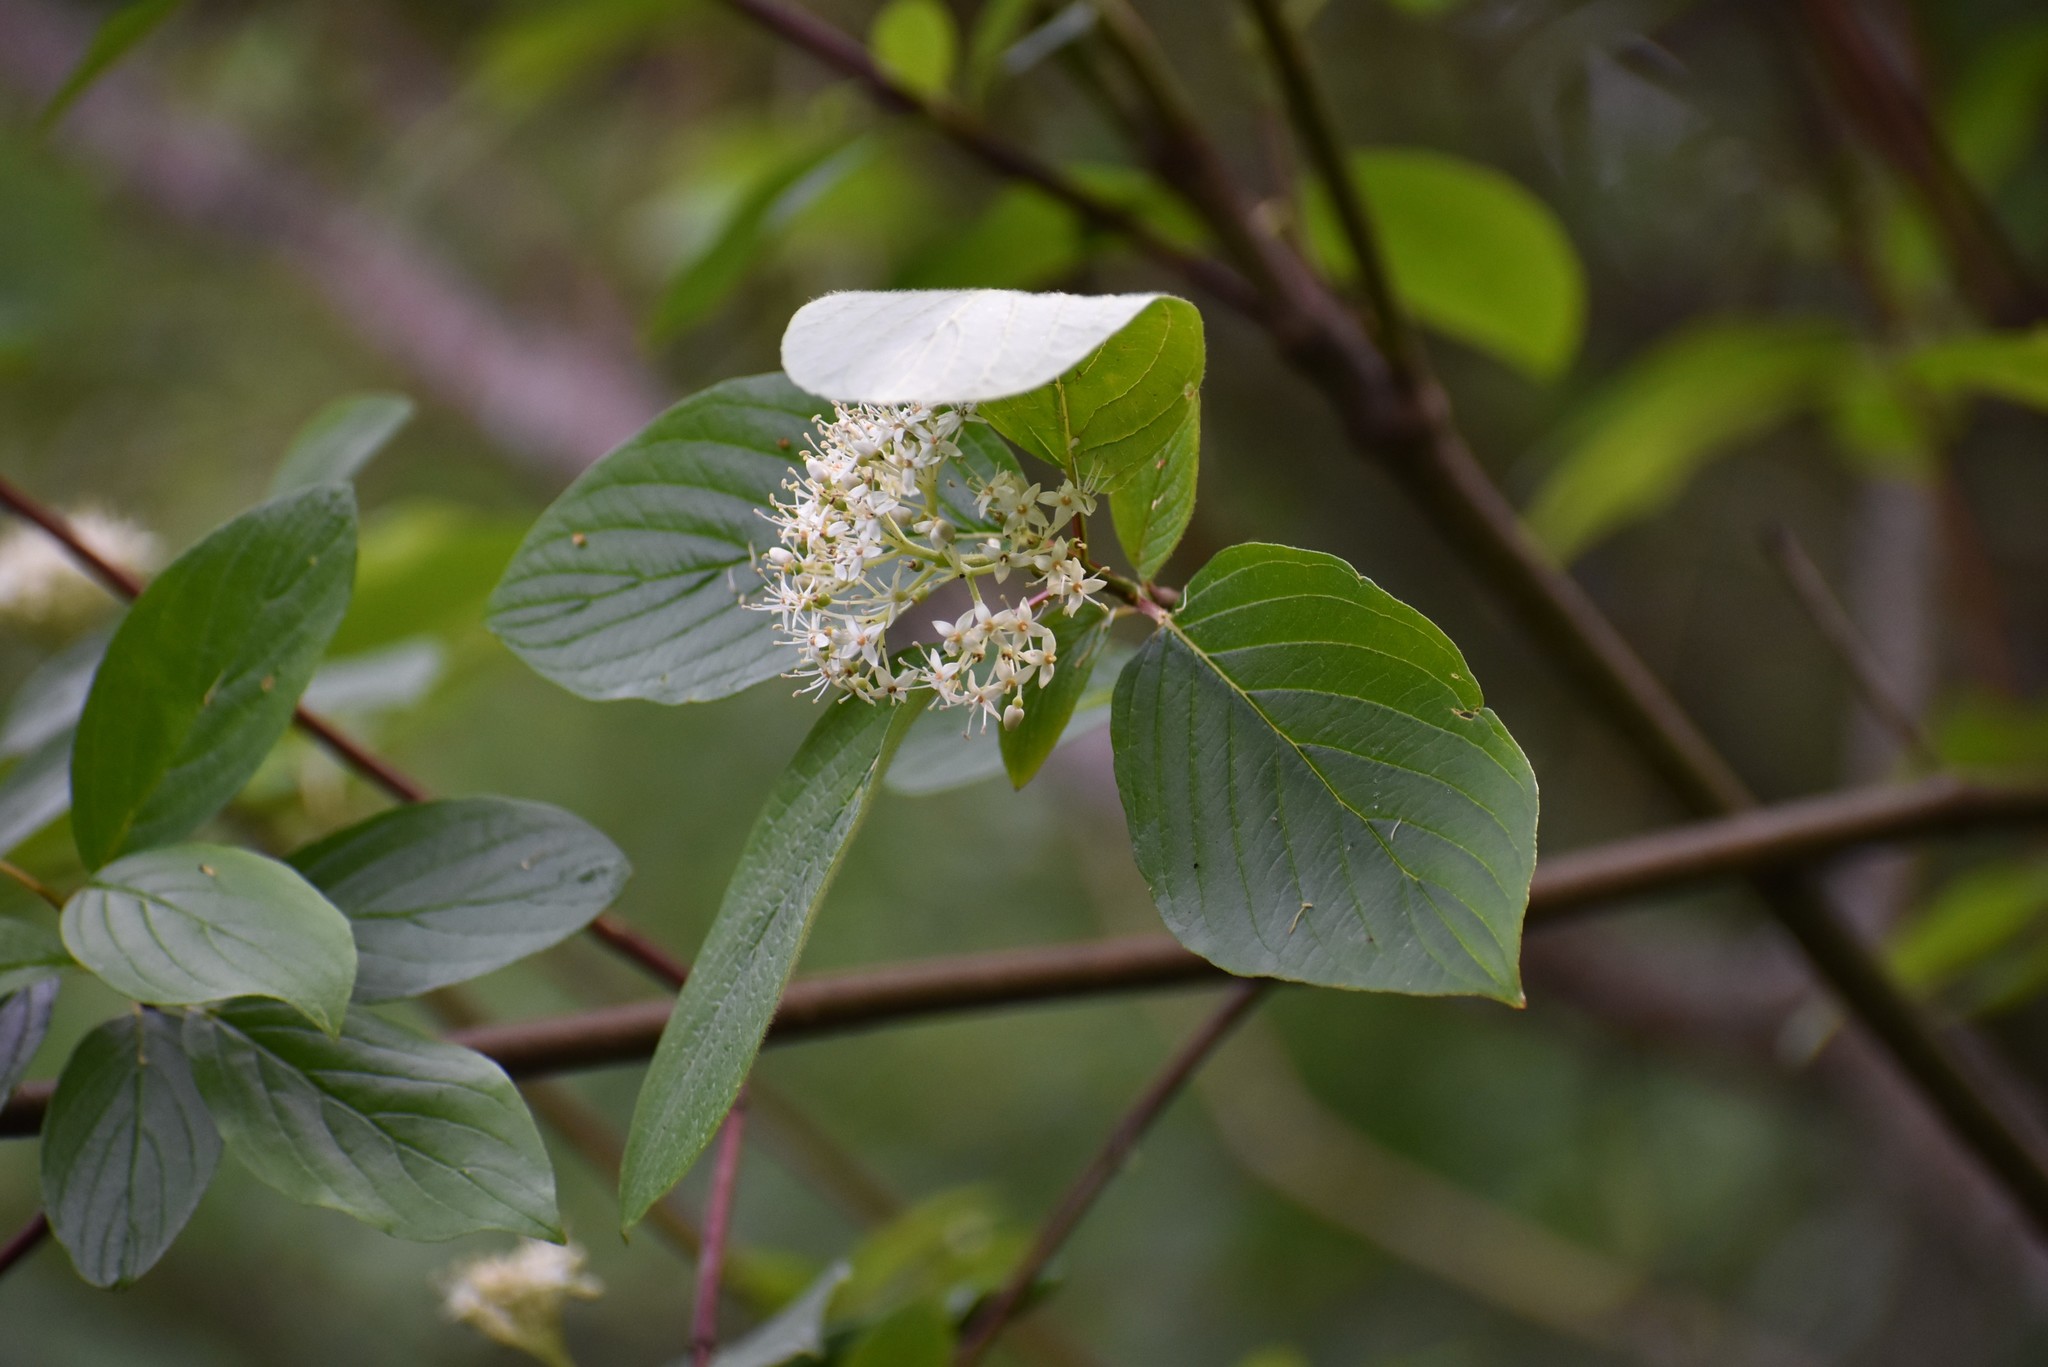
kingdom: Plantae
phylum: Tracheophyta
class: Magnoliopsida
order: Cornales
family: Cornaceae
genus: Cornus
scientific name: Cornus sericea
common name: Red-osier dogwood
